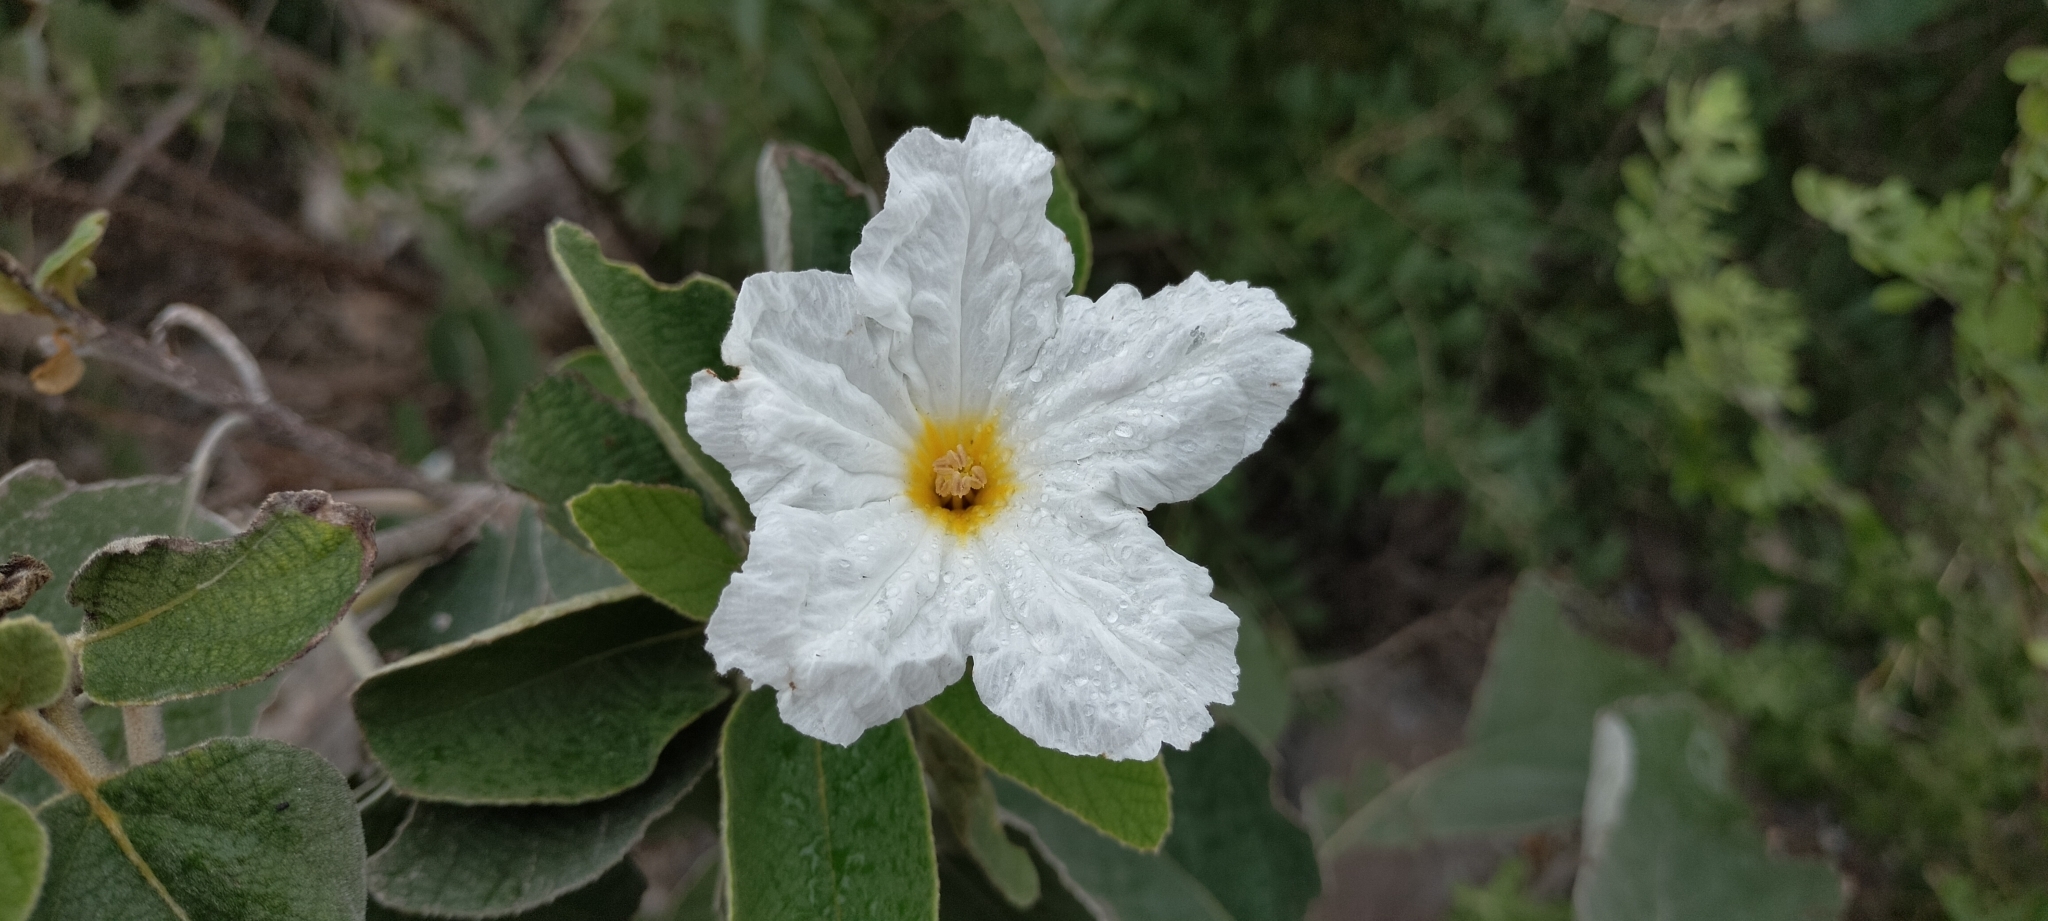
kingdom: Plantae
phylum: Tracheophyta
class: Magnoliopsida
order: Boraginales
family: Cordiaceae
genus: Cordia
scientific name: Cordia boissieri
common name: Mexican-olive
